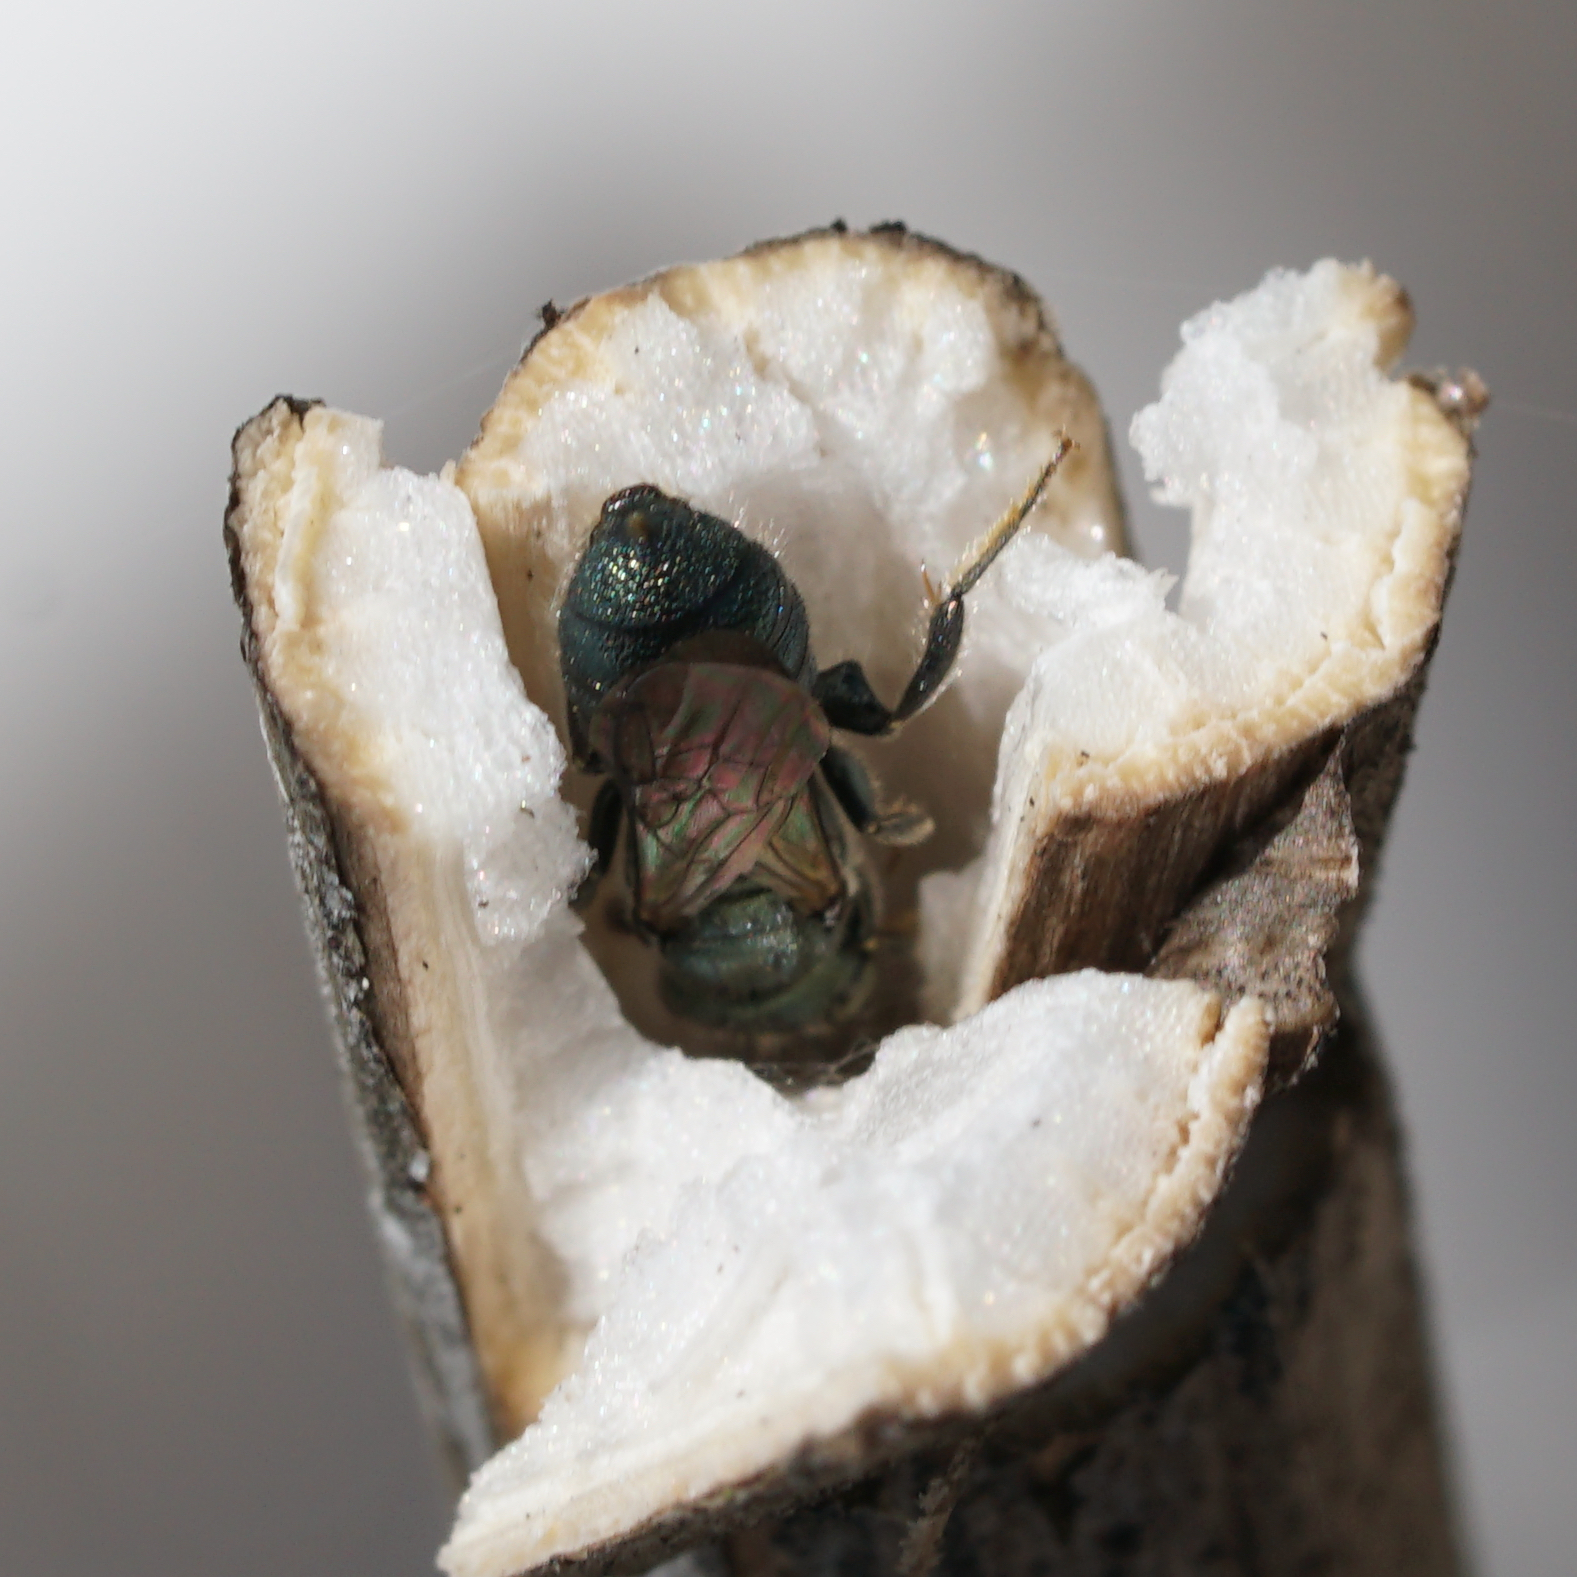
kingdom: Animalia
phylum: Arthropoda
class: Insecta
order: Hymenoptera
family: Apidae
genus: Ceratina
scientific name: Ceratina calcarata
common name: Spurred carpenter bee
